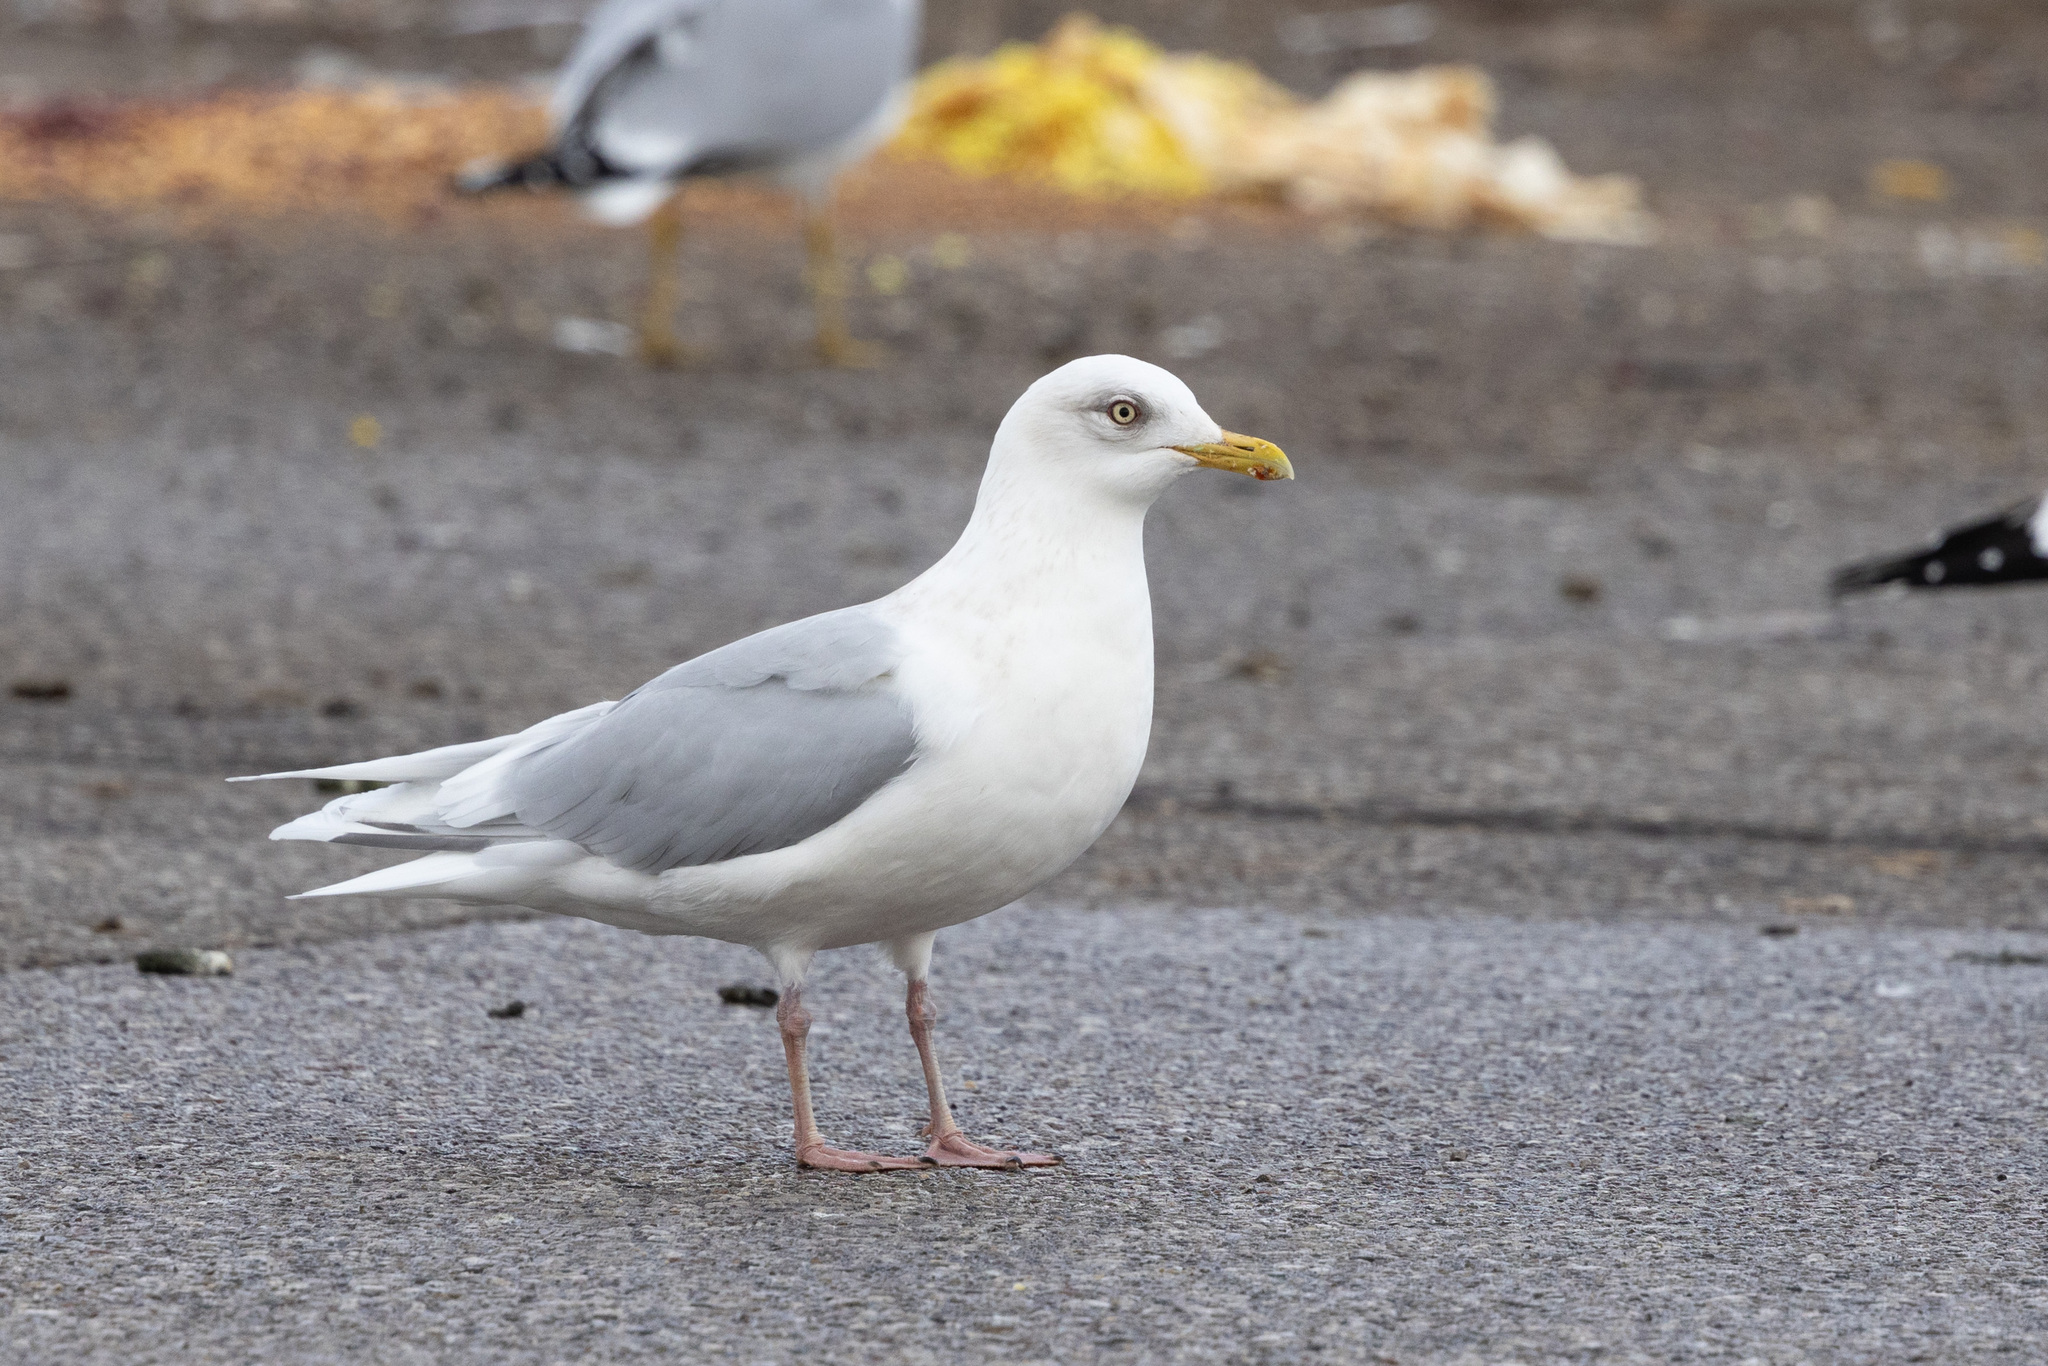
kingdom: Animalia
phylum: Chordata
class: Aves
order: Charadriiformes
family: Laridae
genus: Larus
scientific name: Larus glaucoides
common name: Iceland gull
